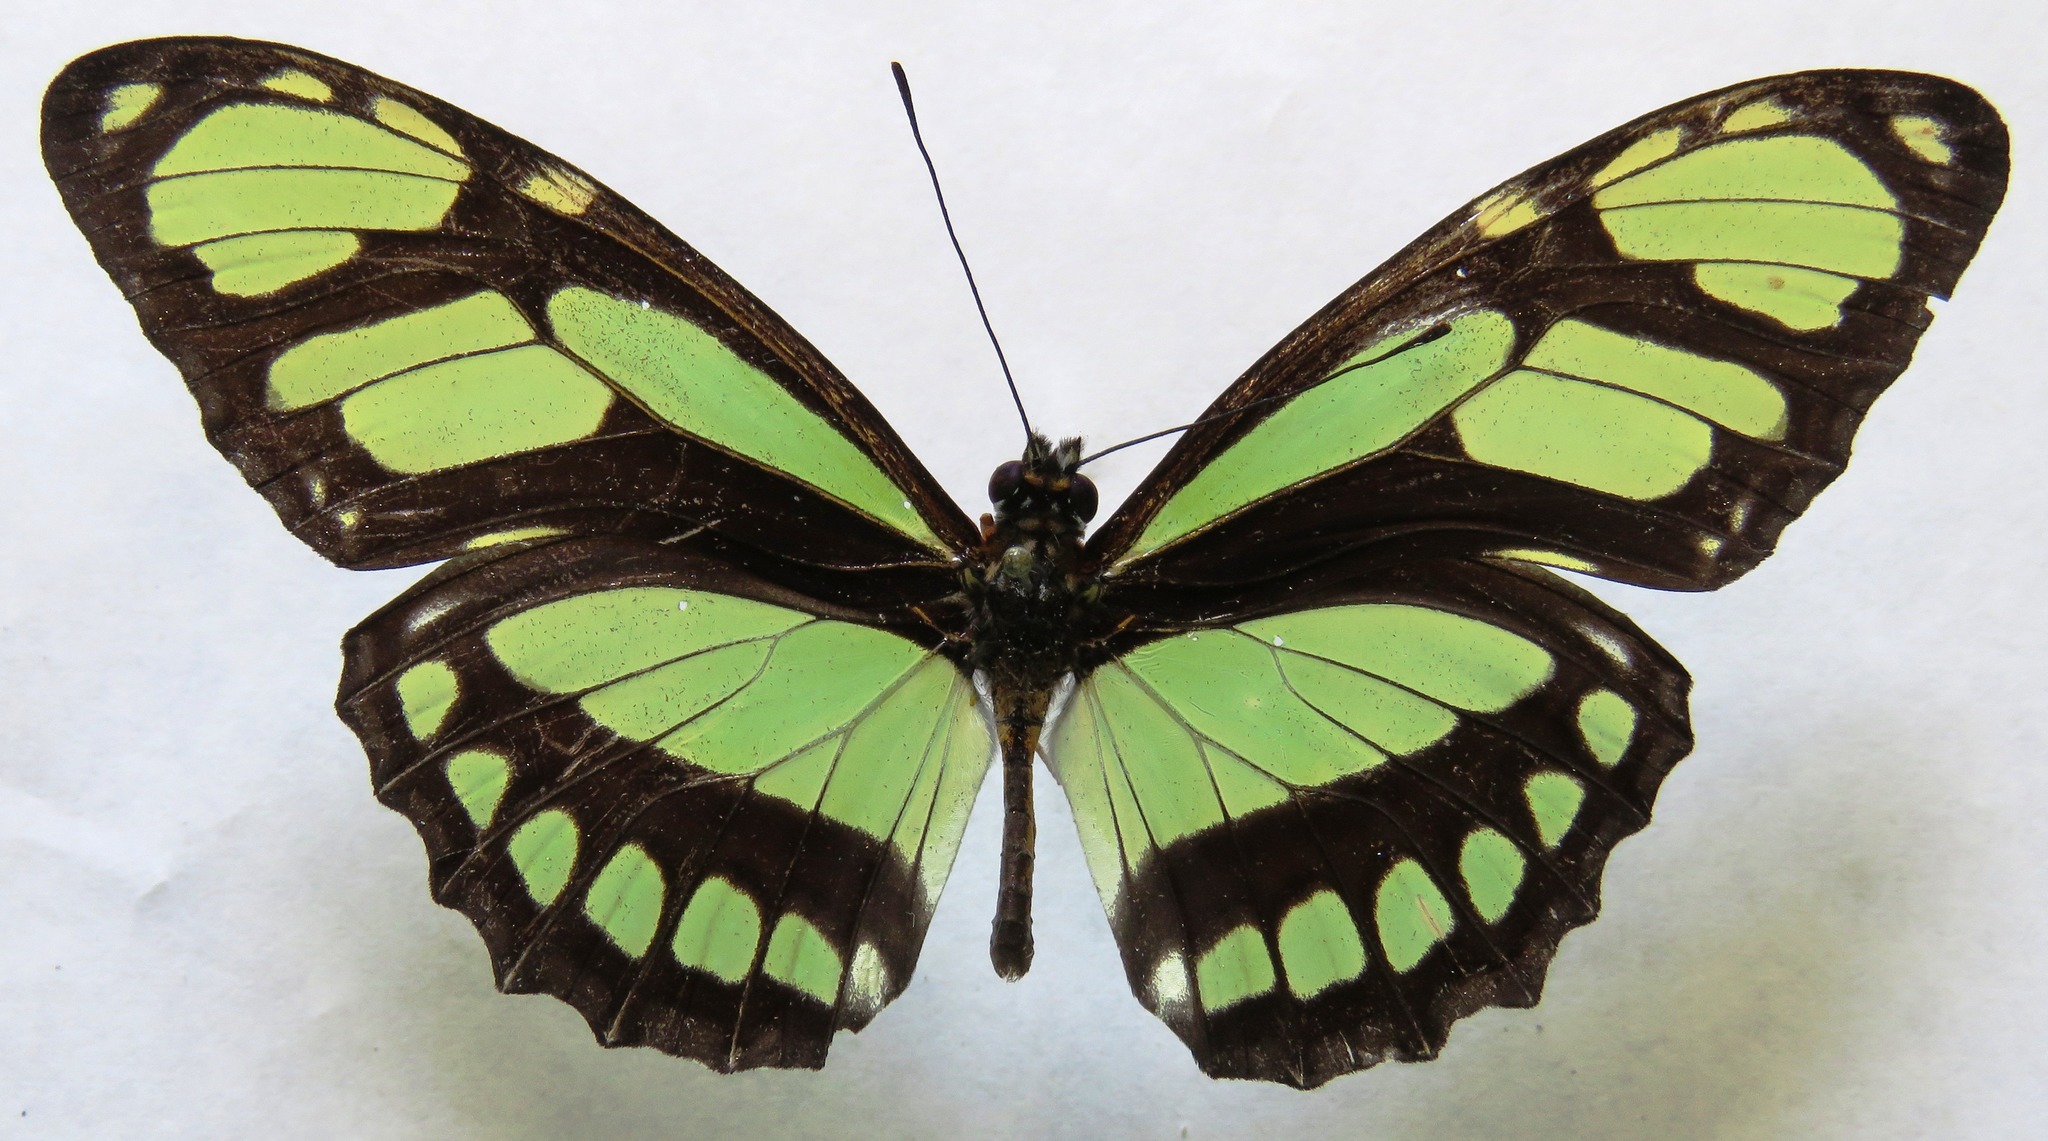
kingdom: Animalia
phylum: Arthropoda
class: Insecta
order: Lepidoptera
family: Nymphalidae
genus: Philaethria
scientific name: Philaethria dido
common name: Scarce bamboo page
